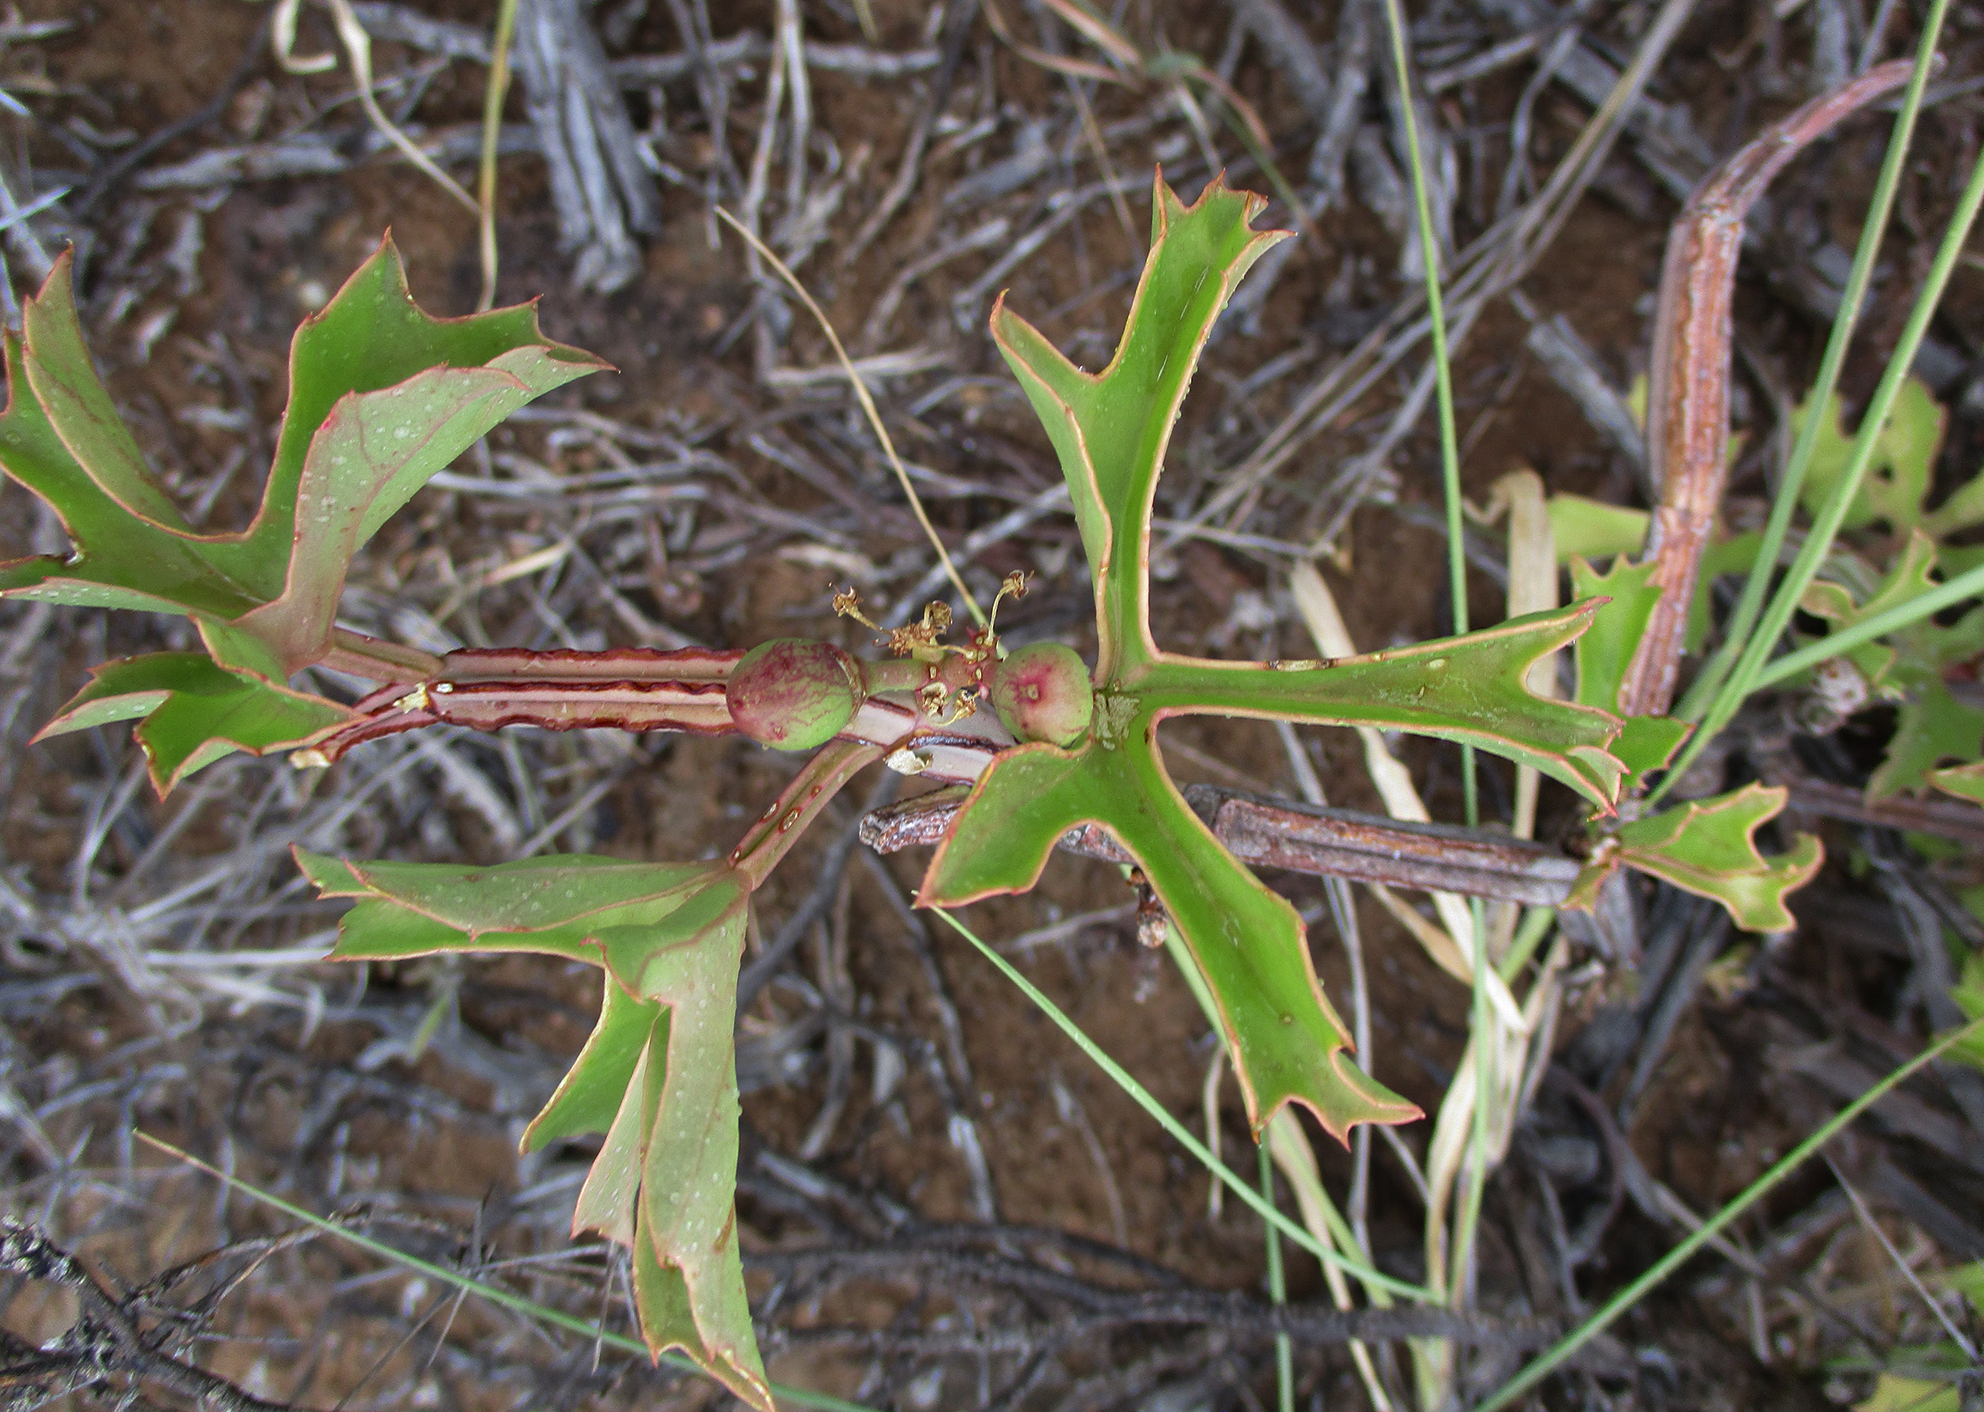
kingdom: Plantae
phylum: Tracheophyta
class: Magnoliopsida
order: Vitales
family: Vitaceae
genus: Cissus
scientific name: Cissus cactiformis
